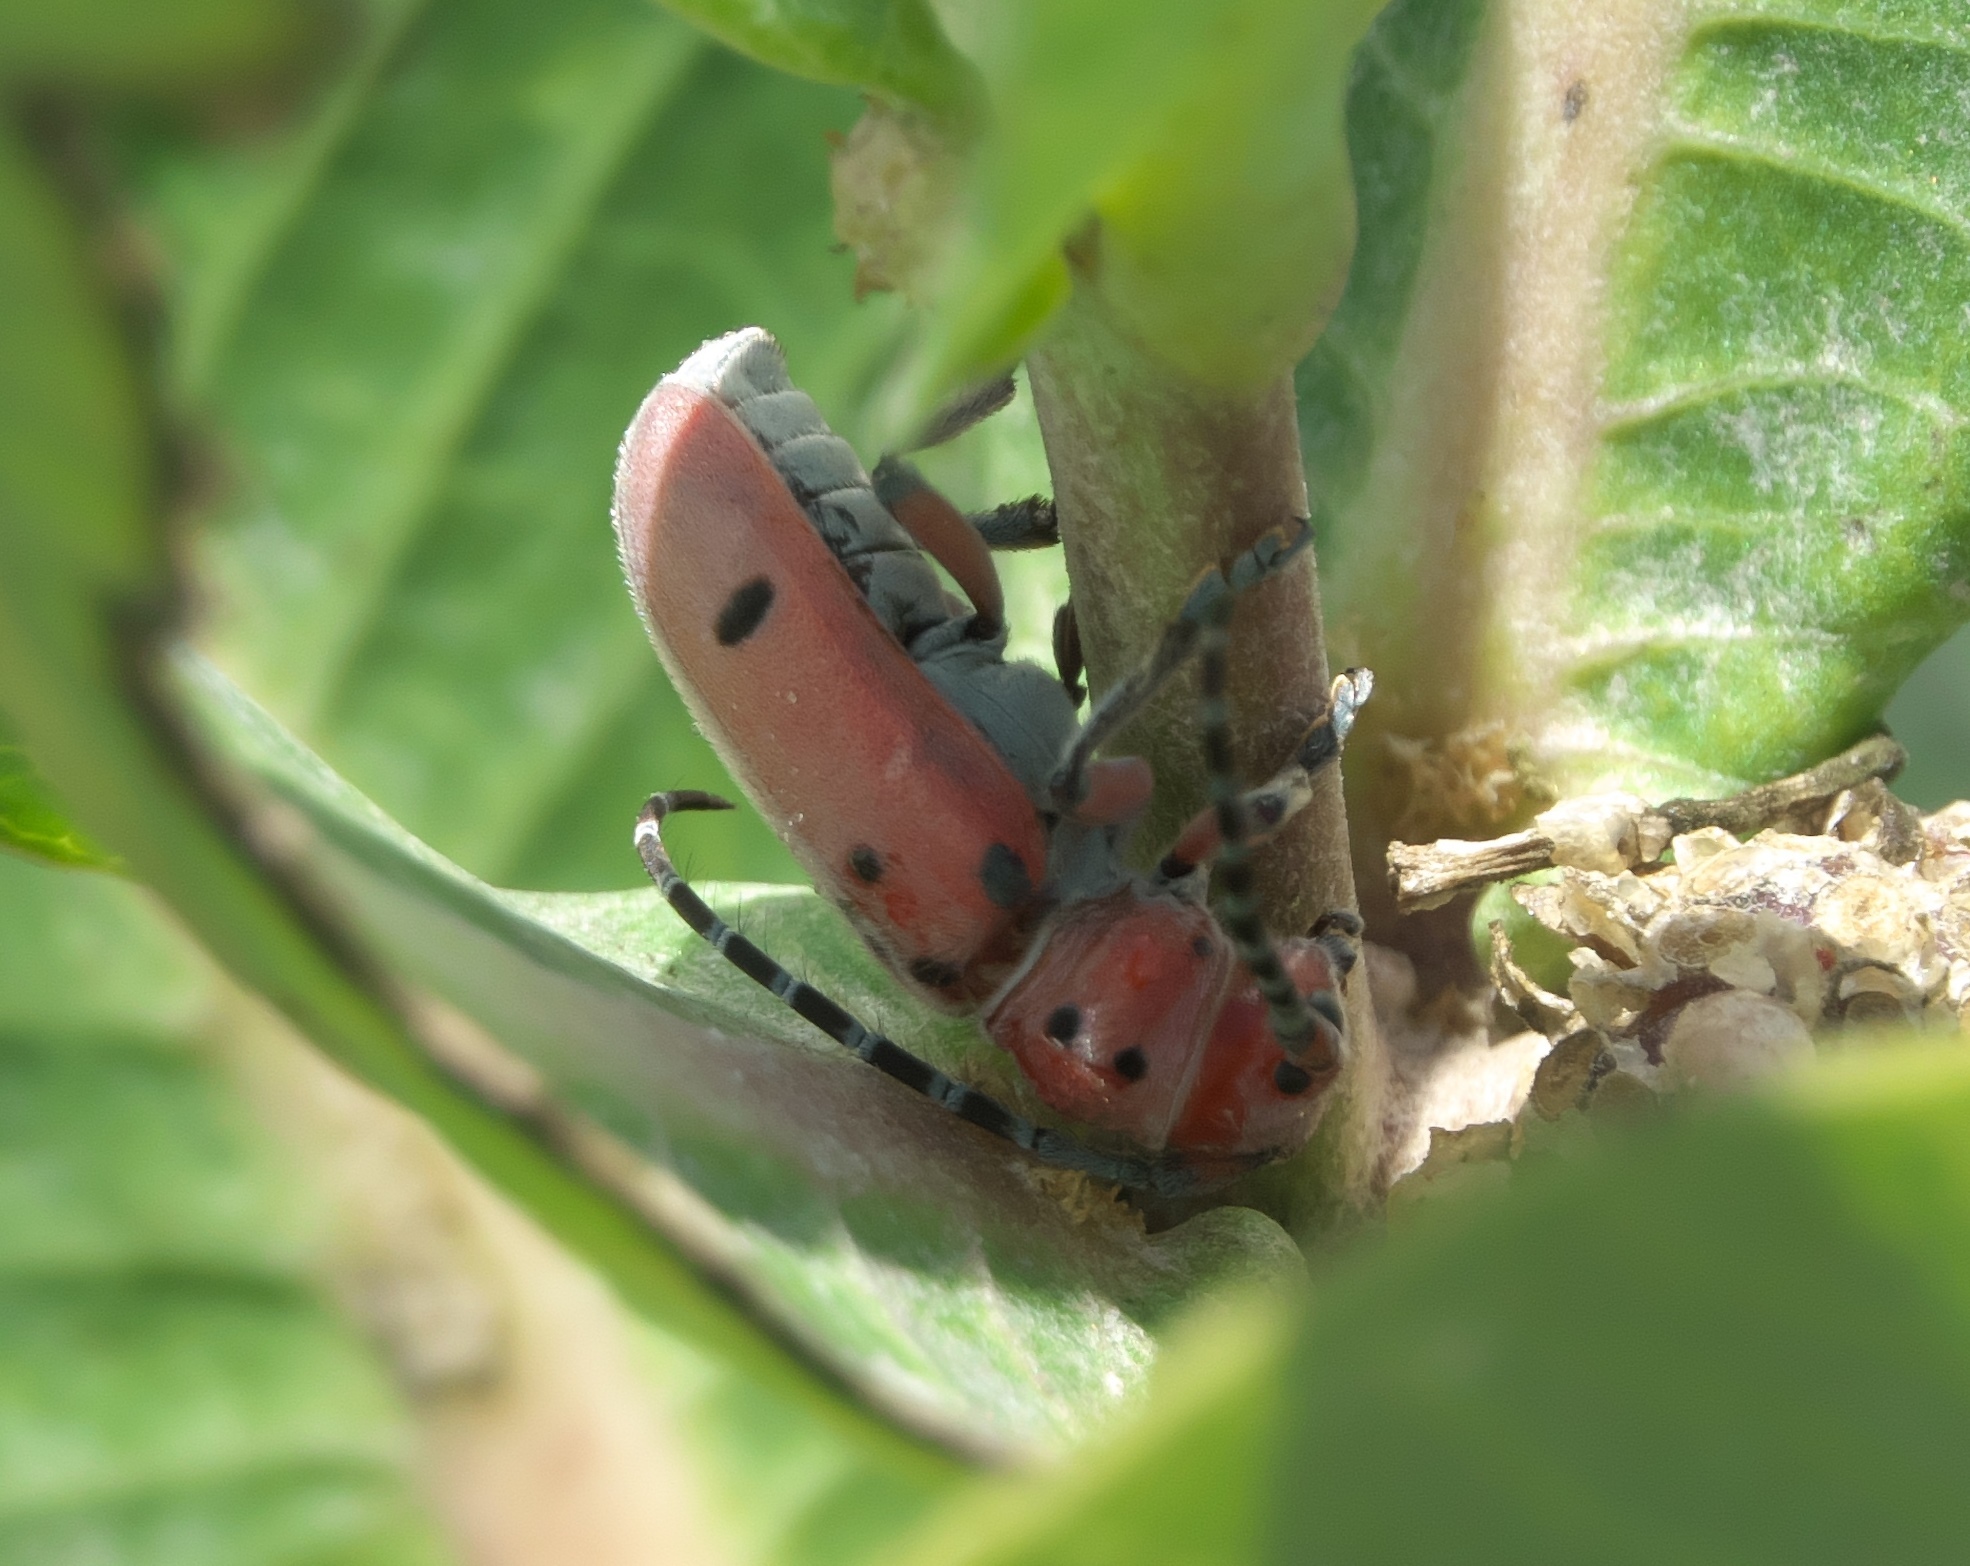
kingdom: Animalia
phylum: Arthropoda
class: Insecta
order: Coleoptera
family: Cerambycidae
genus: Tetraopes
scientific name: Tetraopes femoratus
